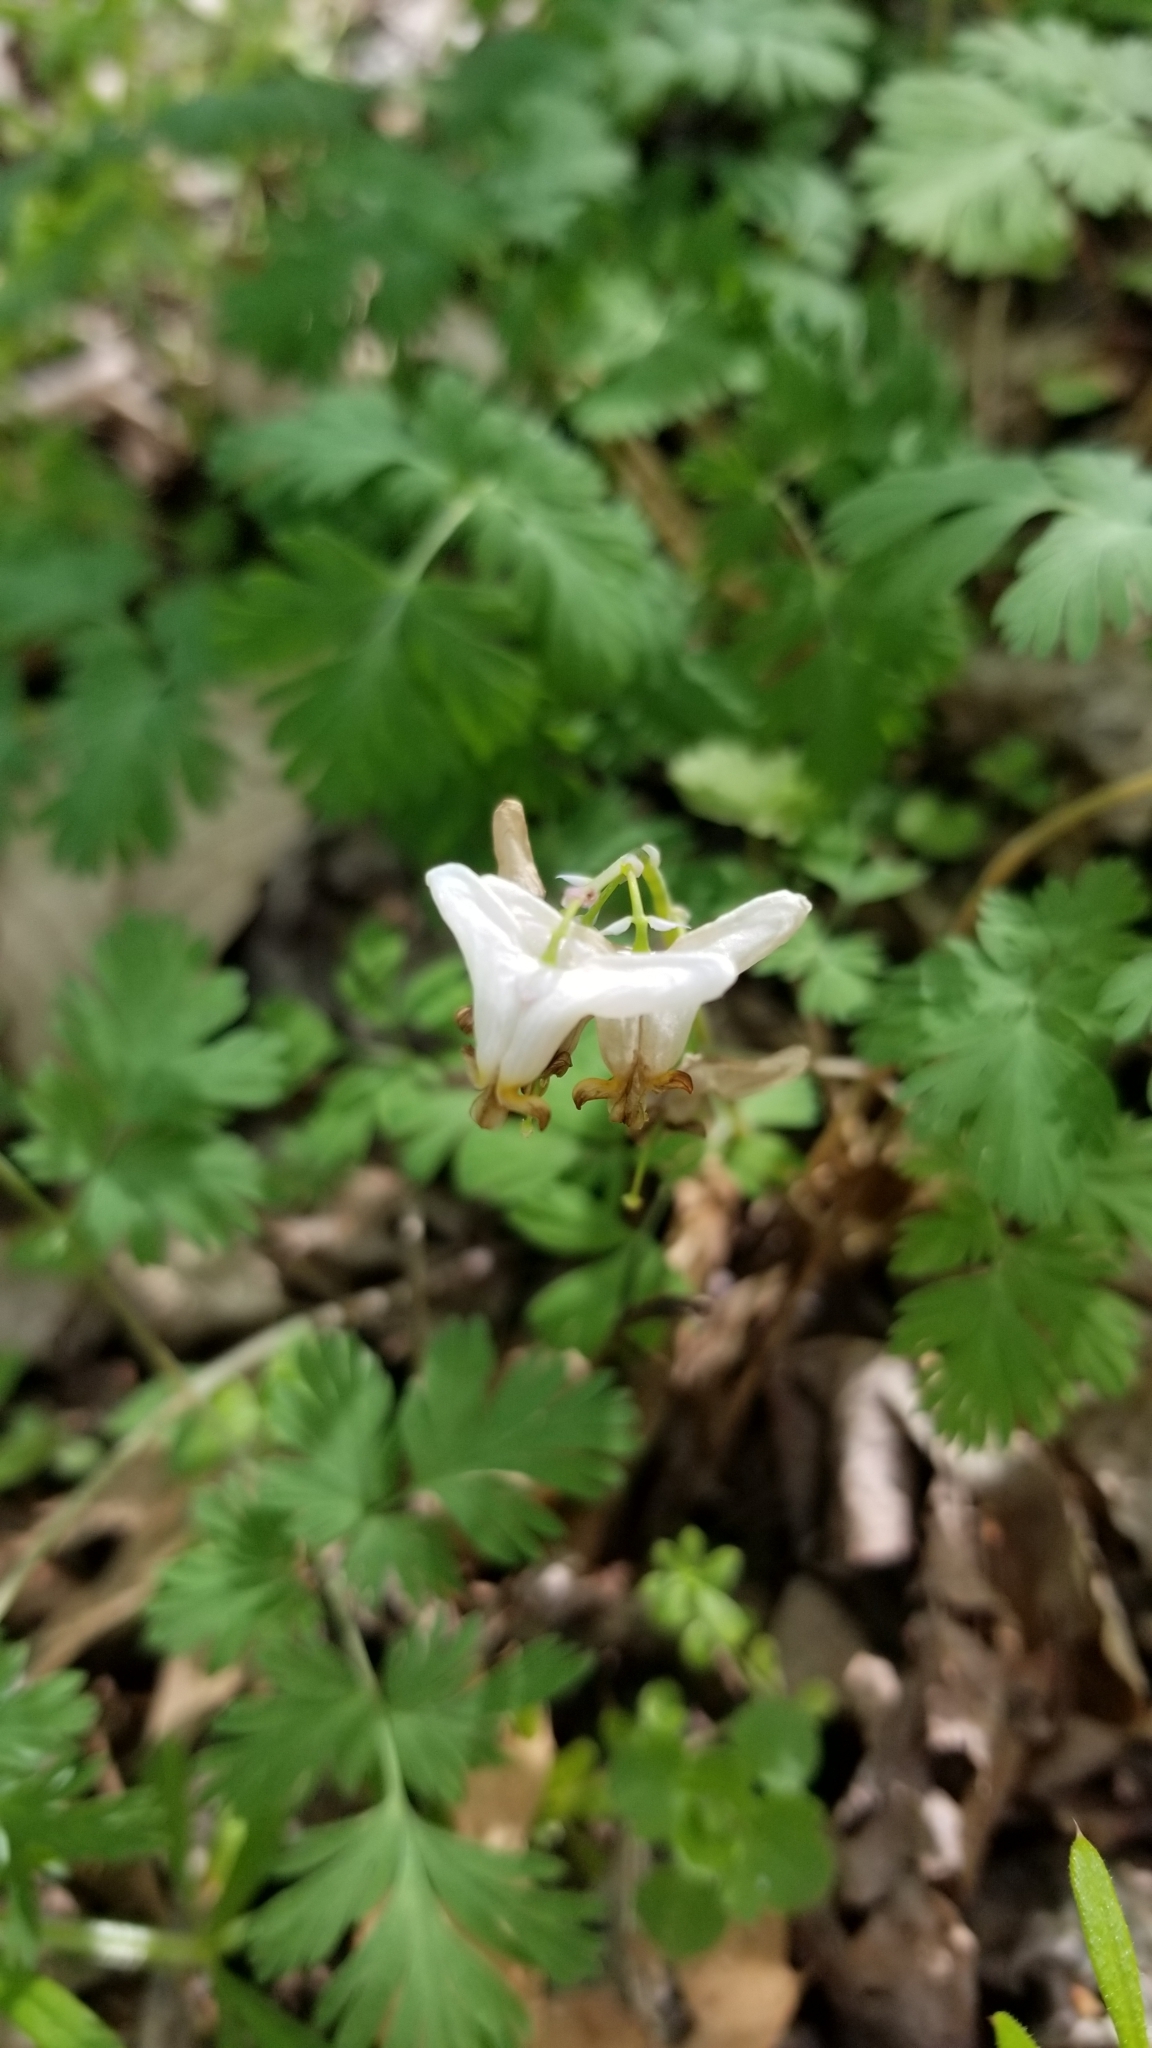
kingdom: Plantae
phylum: Tracheophyta
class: Magnoliopsida
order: Ranunculales
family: Papaveraceae
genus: Dicentra
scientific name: Dicentra cucullaria
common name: Dutchman's breeches
